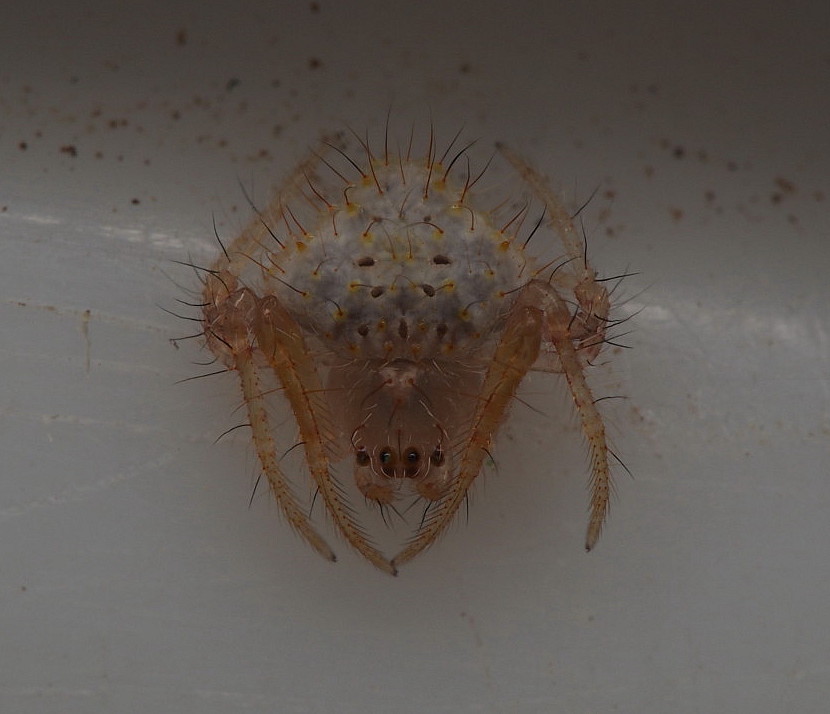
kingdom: Animalia
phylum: Arthropoda
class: Arachnida
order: Araneae
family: Araneidae
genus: Poecilopachys
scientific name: Poecilopachys australasia
